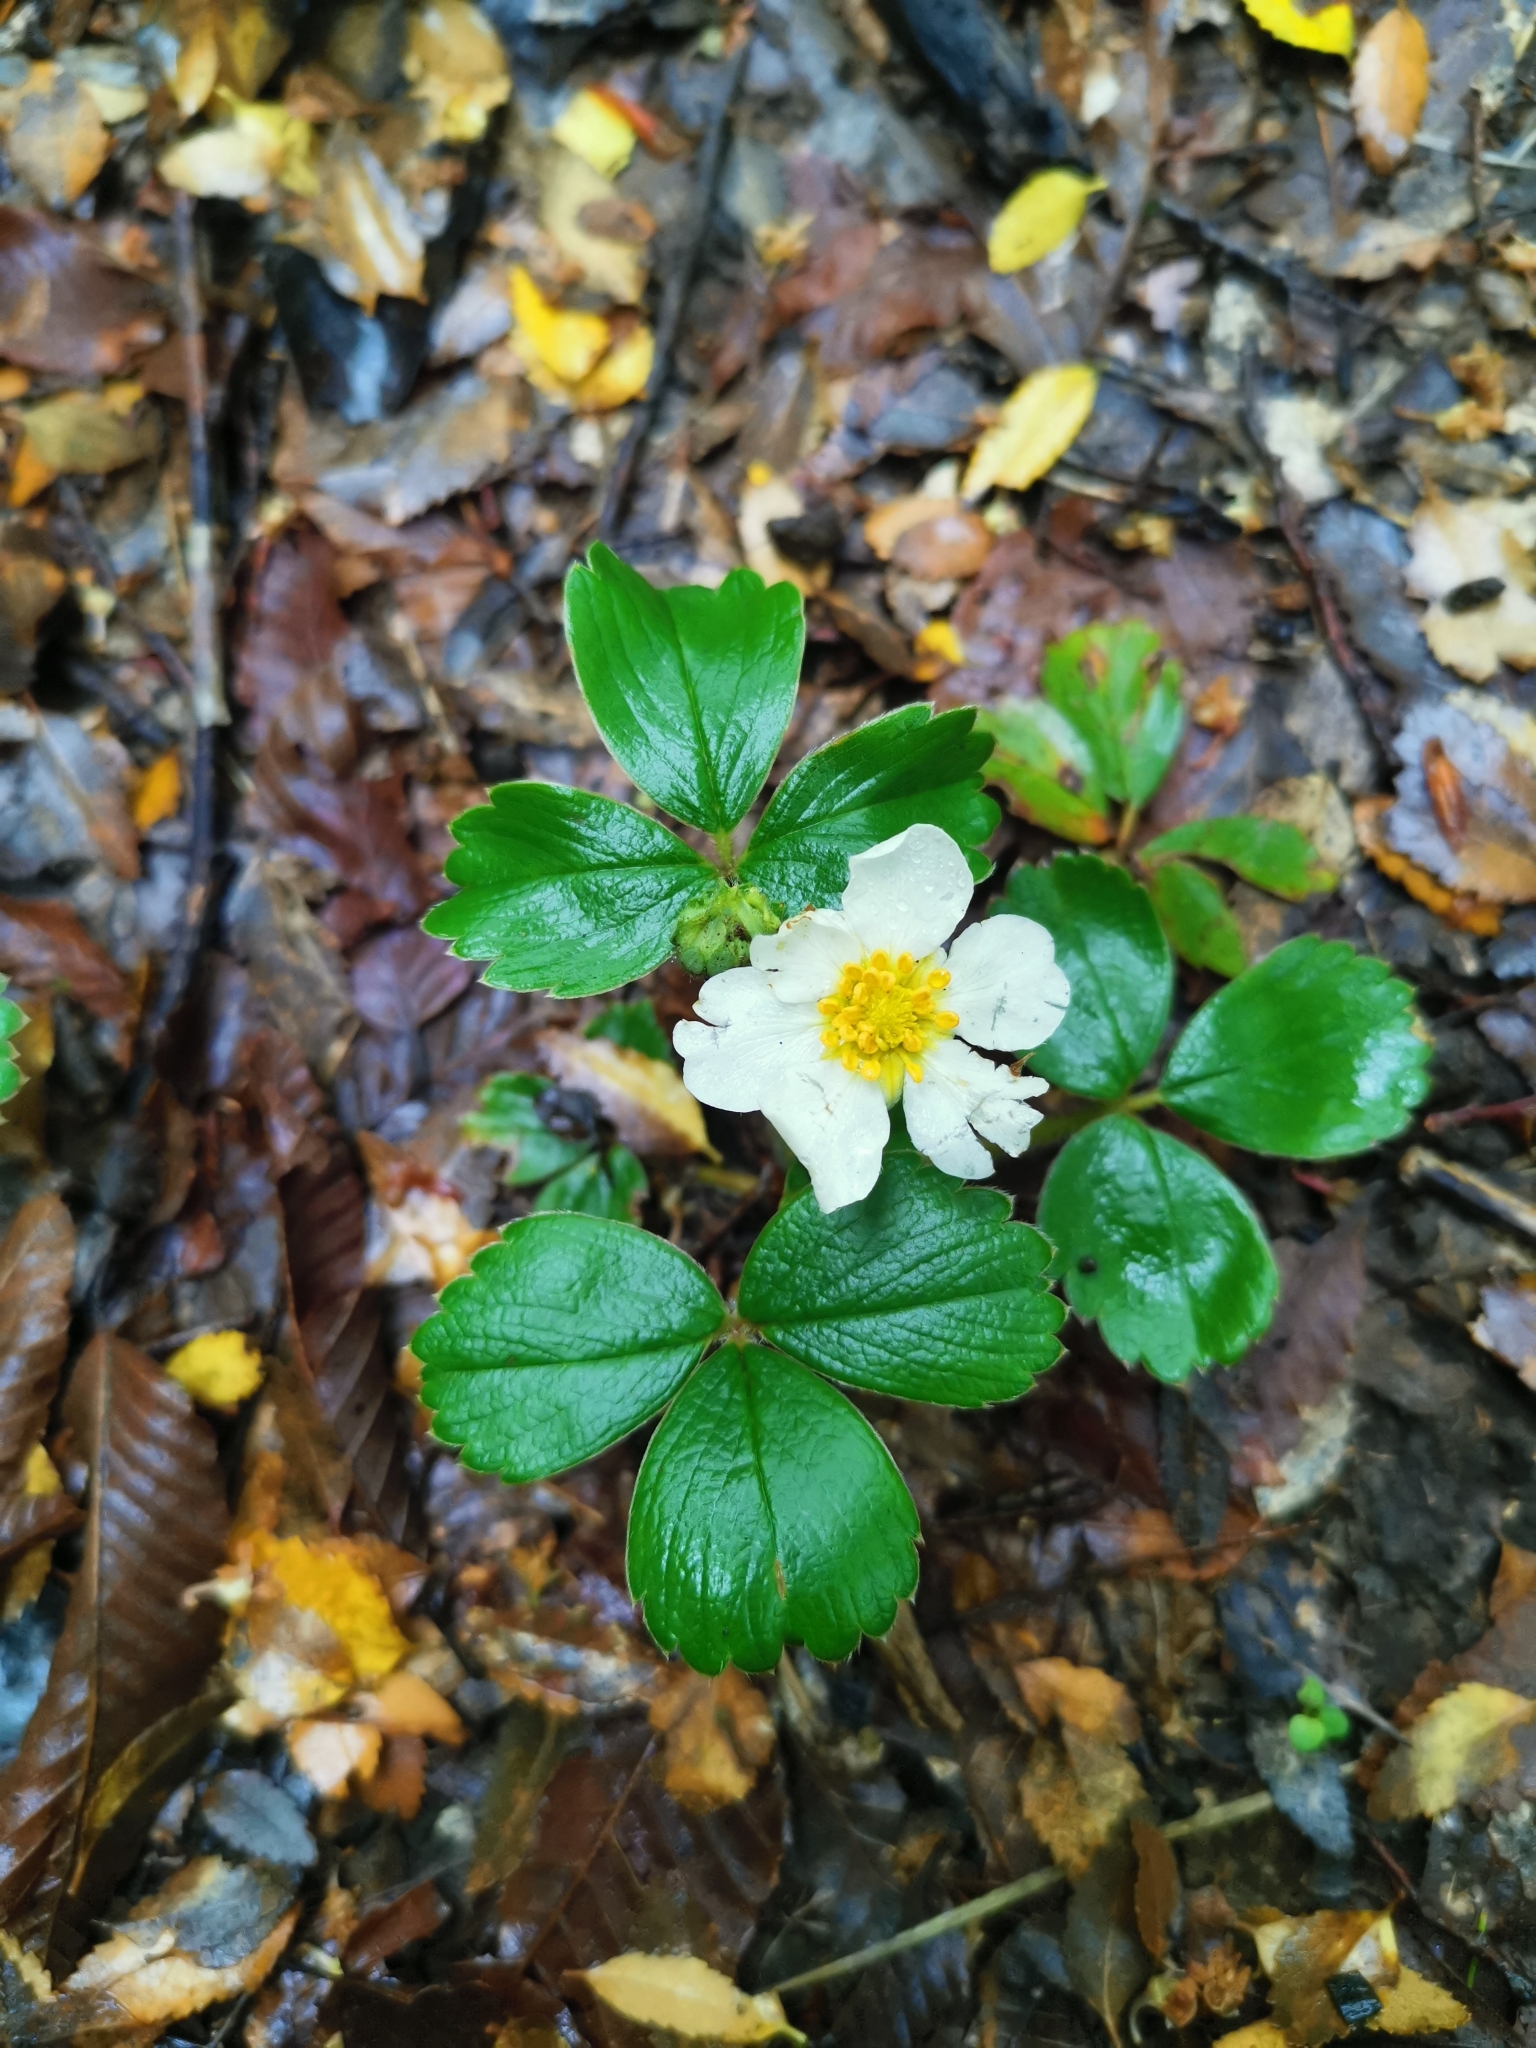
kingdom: Plantae
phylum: Tracheophyta
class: Magnoliopsida
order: Rosales
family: Rosaceae
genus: Fragaria
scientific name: Fragaria chiloensis
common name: Beach strawberry
